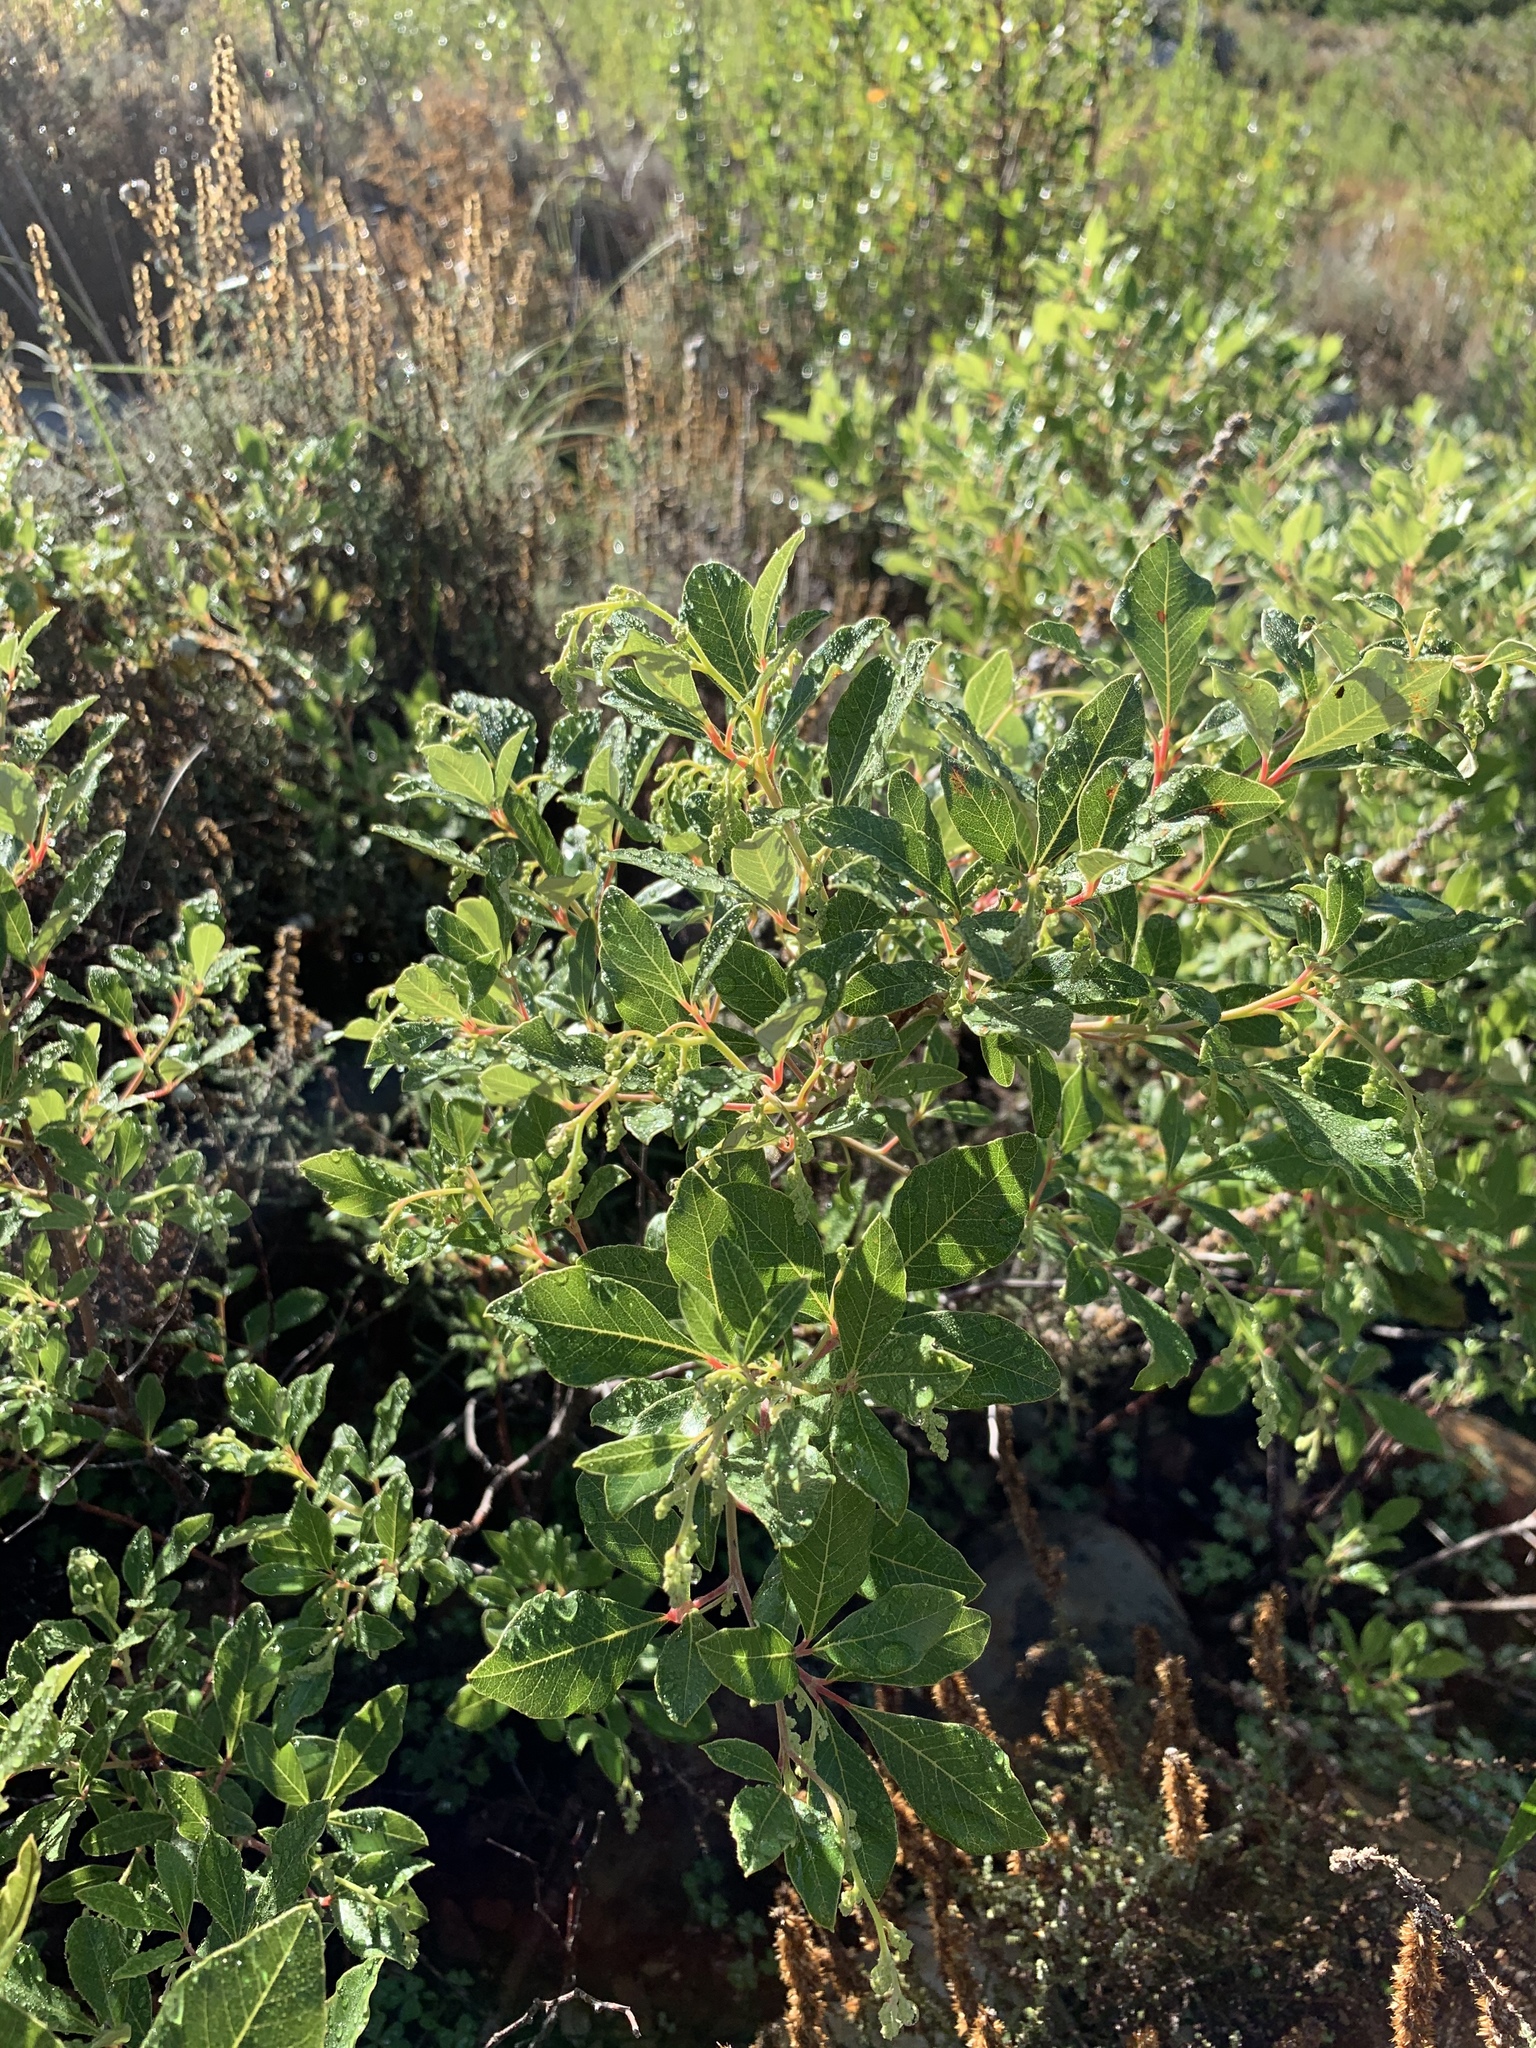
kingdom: Plantae
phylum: Tracheophyta
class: Magnoliopsida
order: Sapindales
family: Anacardiaceae
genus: Searsia
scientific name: Searsia tomentosa
